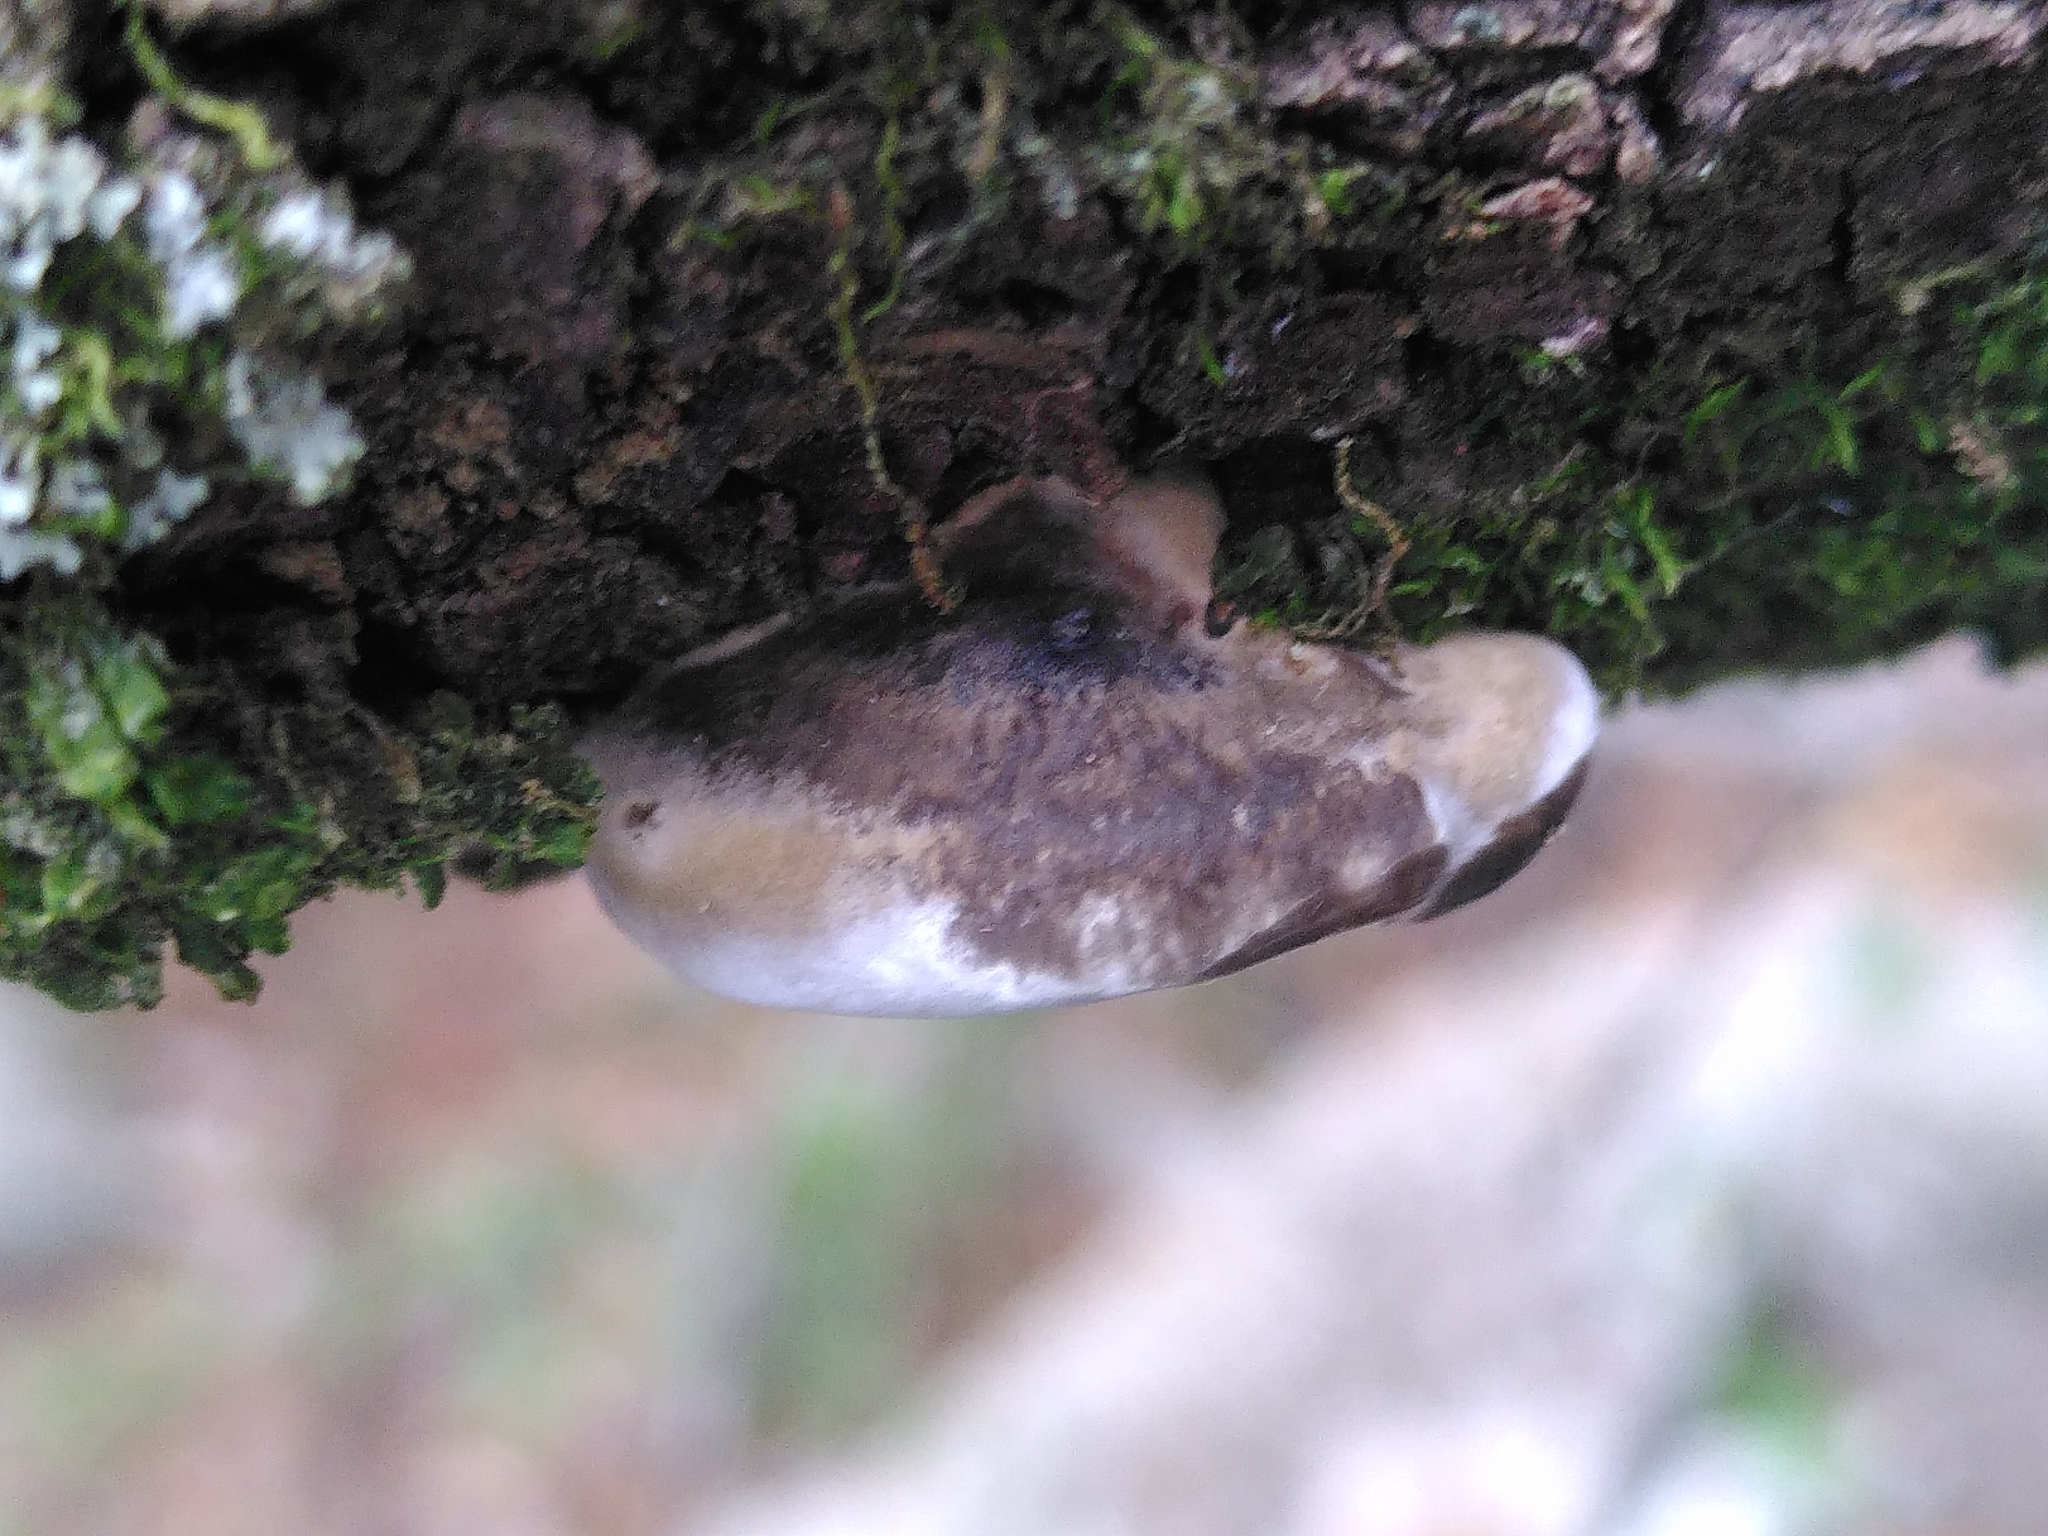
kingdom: Fungi
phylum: Basidiomycota
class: Agaricomycetes
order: Polyporales
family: Polyporaceae
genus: Daedaleopsis
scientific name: Daedaleopsis nitida
